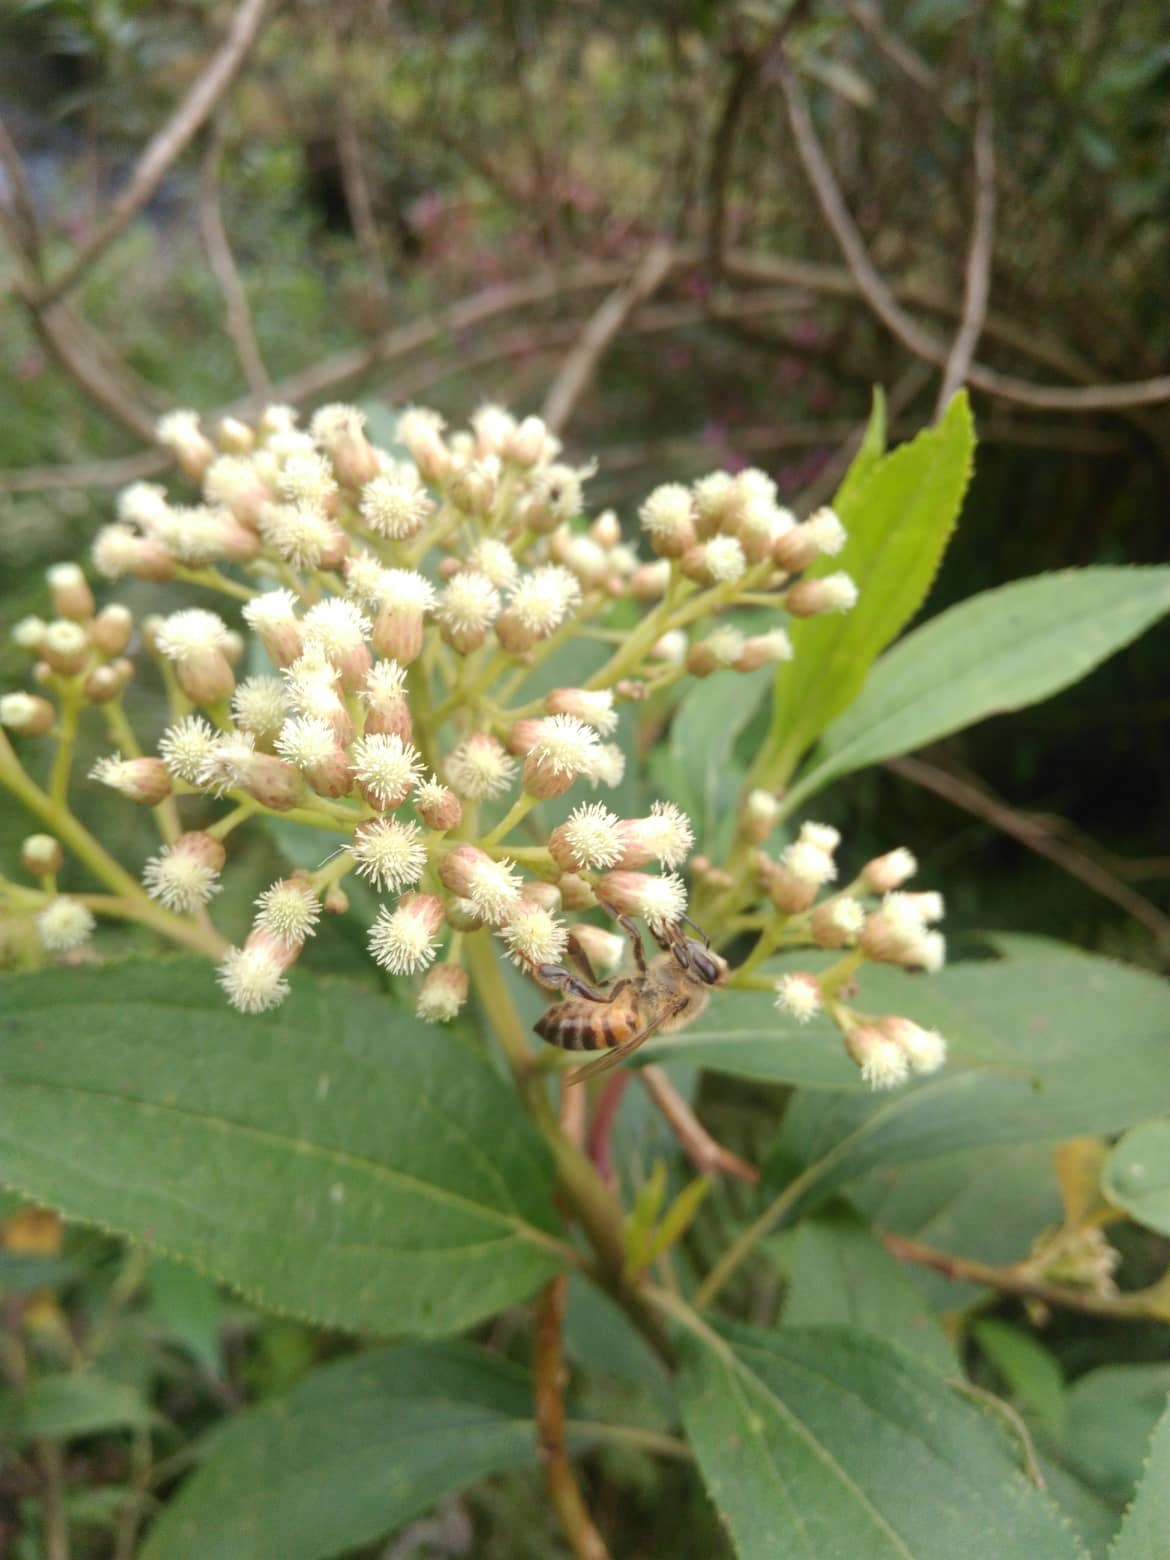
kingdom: Animalia
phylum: Arthropoda
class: Insecta
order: Hymenoptera
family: Apidae
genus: Apis
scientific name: Apis mellifera
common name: Honey bee
